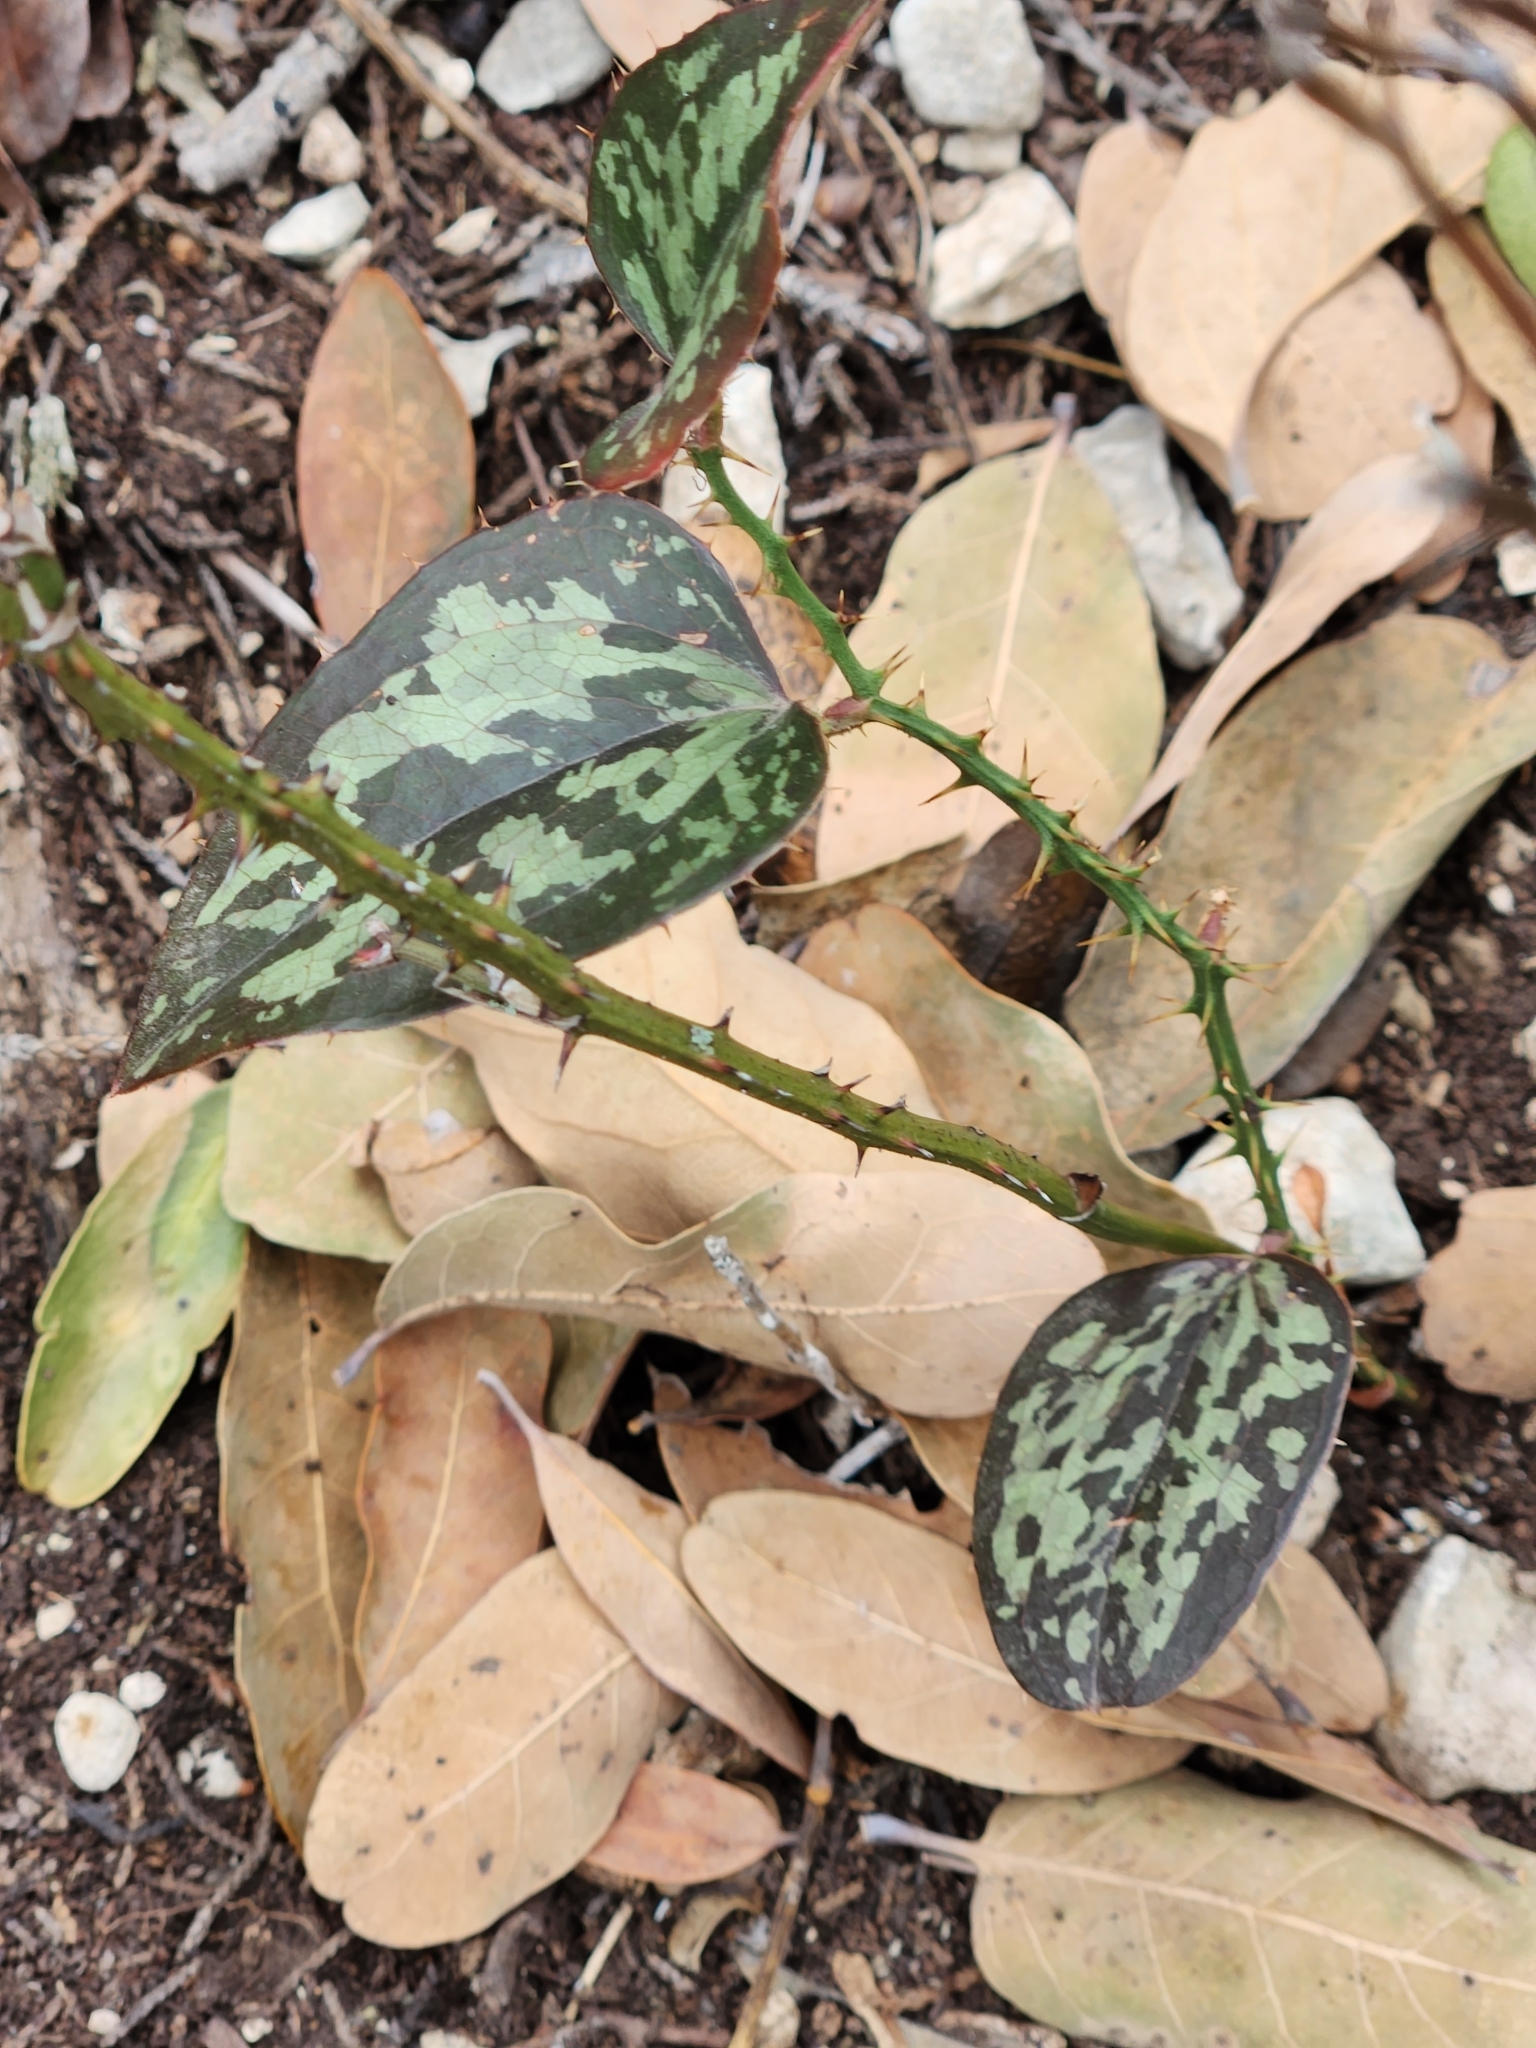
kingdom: Plantae
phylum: Tracheophyta
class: Liliopsida
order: Liliales
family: Smilacaceae
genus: Smilax
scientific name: Smilax bona-nox
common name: Catbrier
